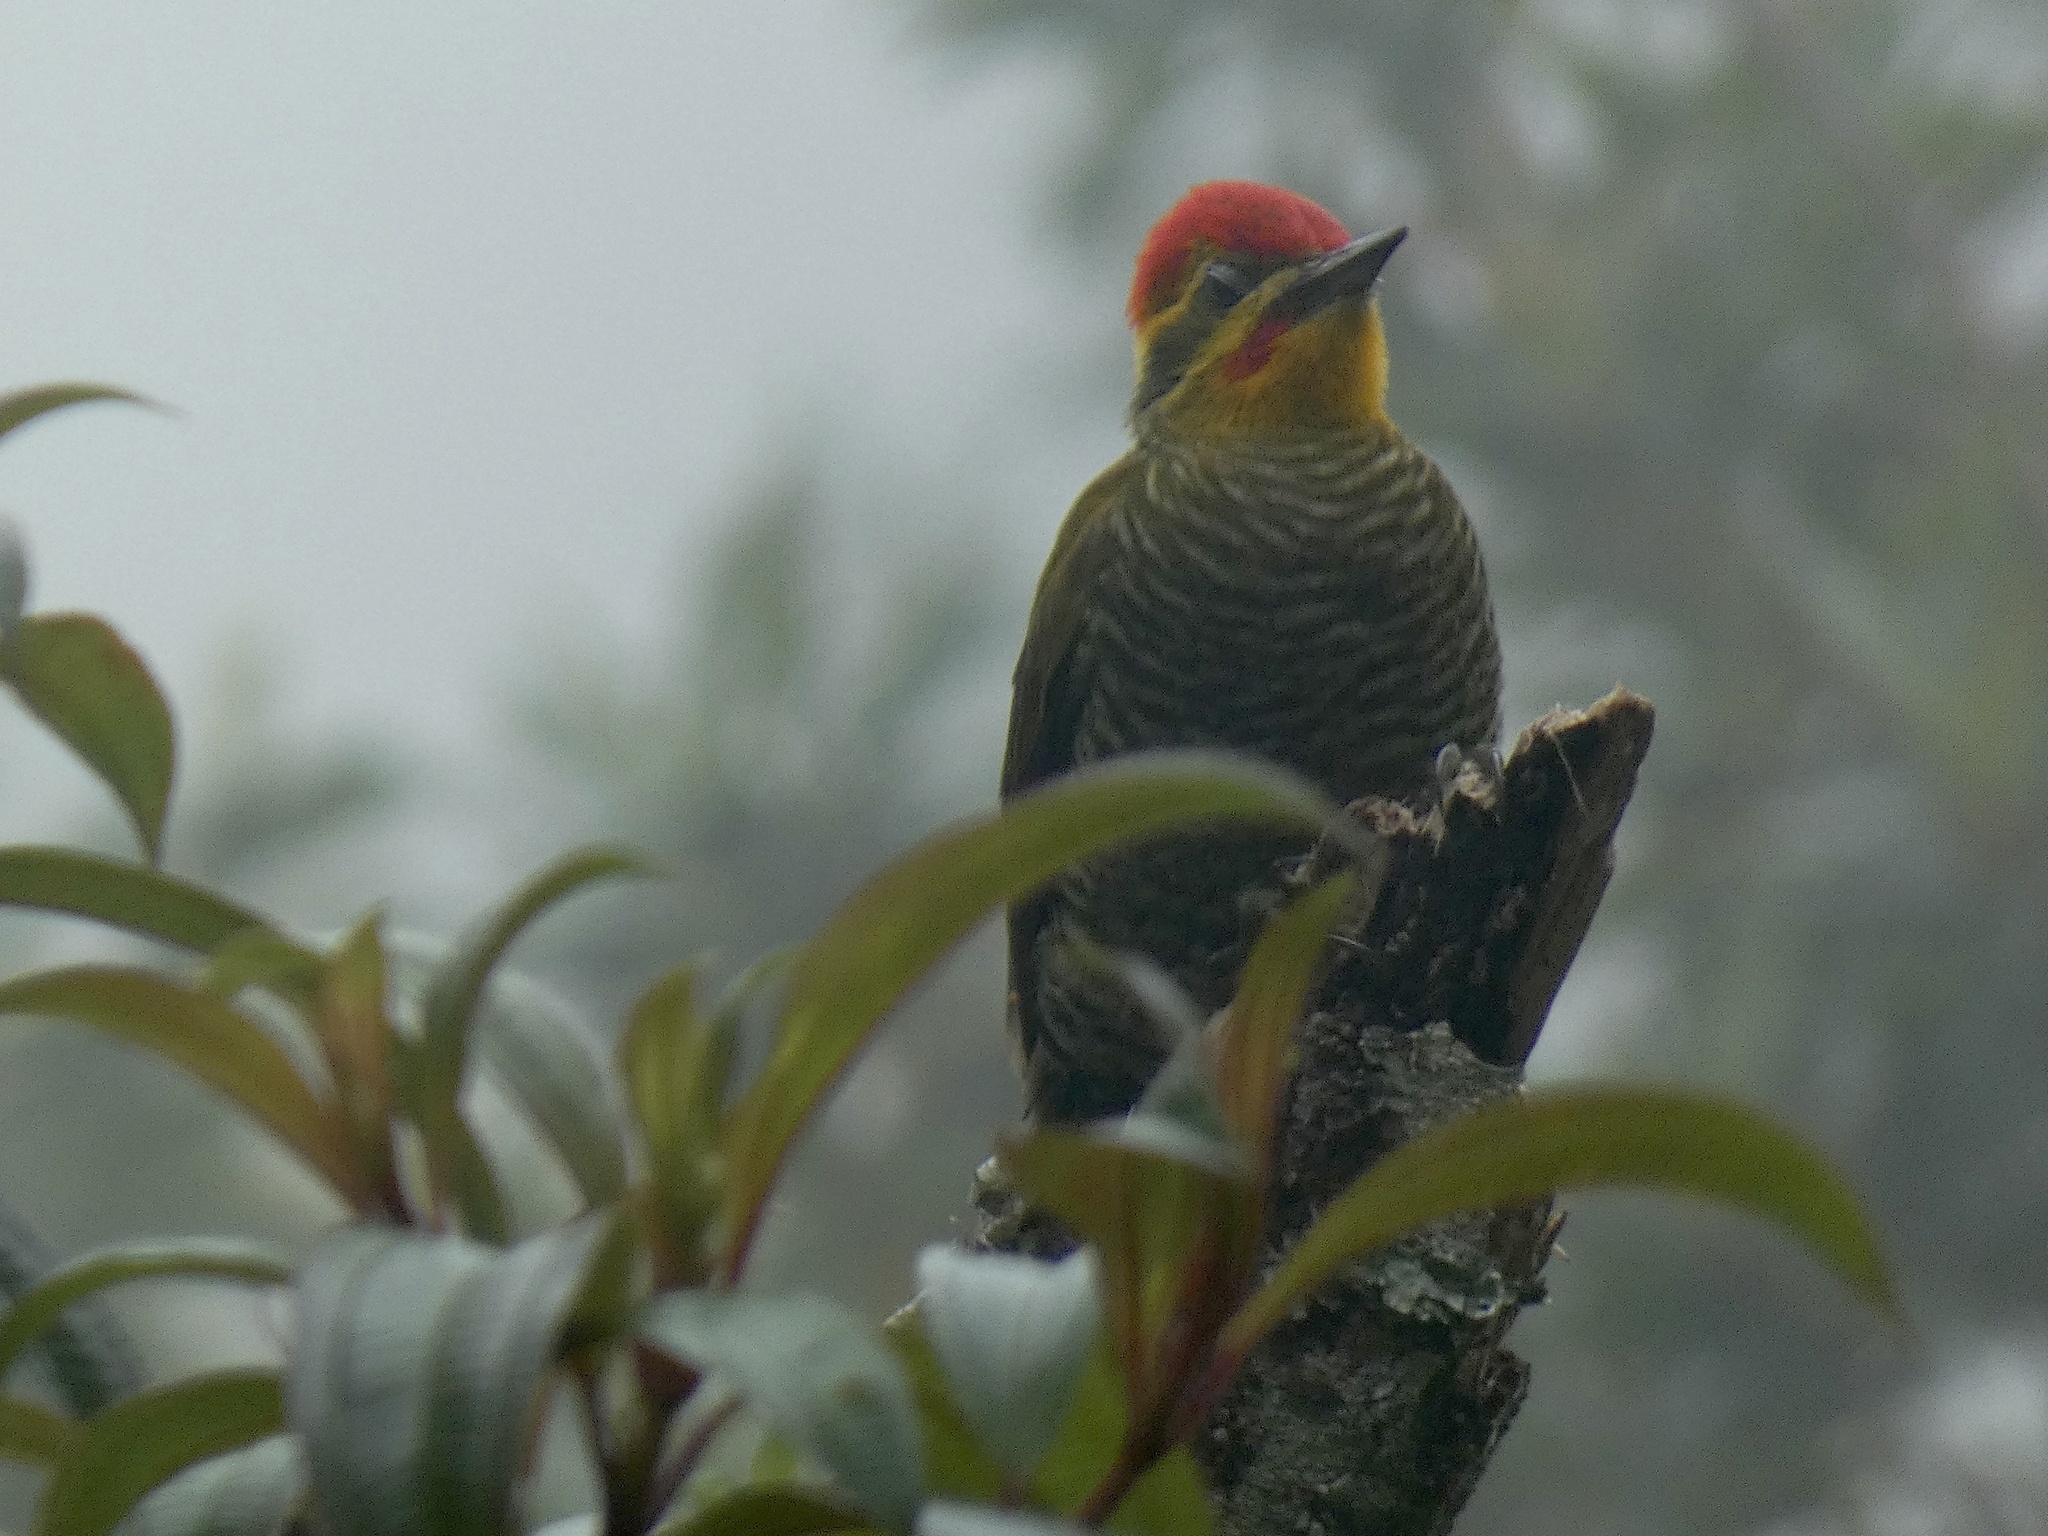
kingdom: Animalia
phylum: Chordata
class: Aves
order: Piciformes
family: Picidae
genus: Piculus
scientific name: Piculus aurulentus
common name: Yellow-browed woodpecker
